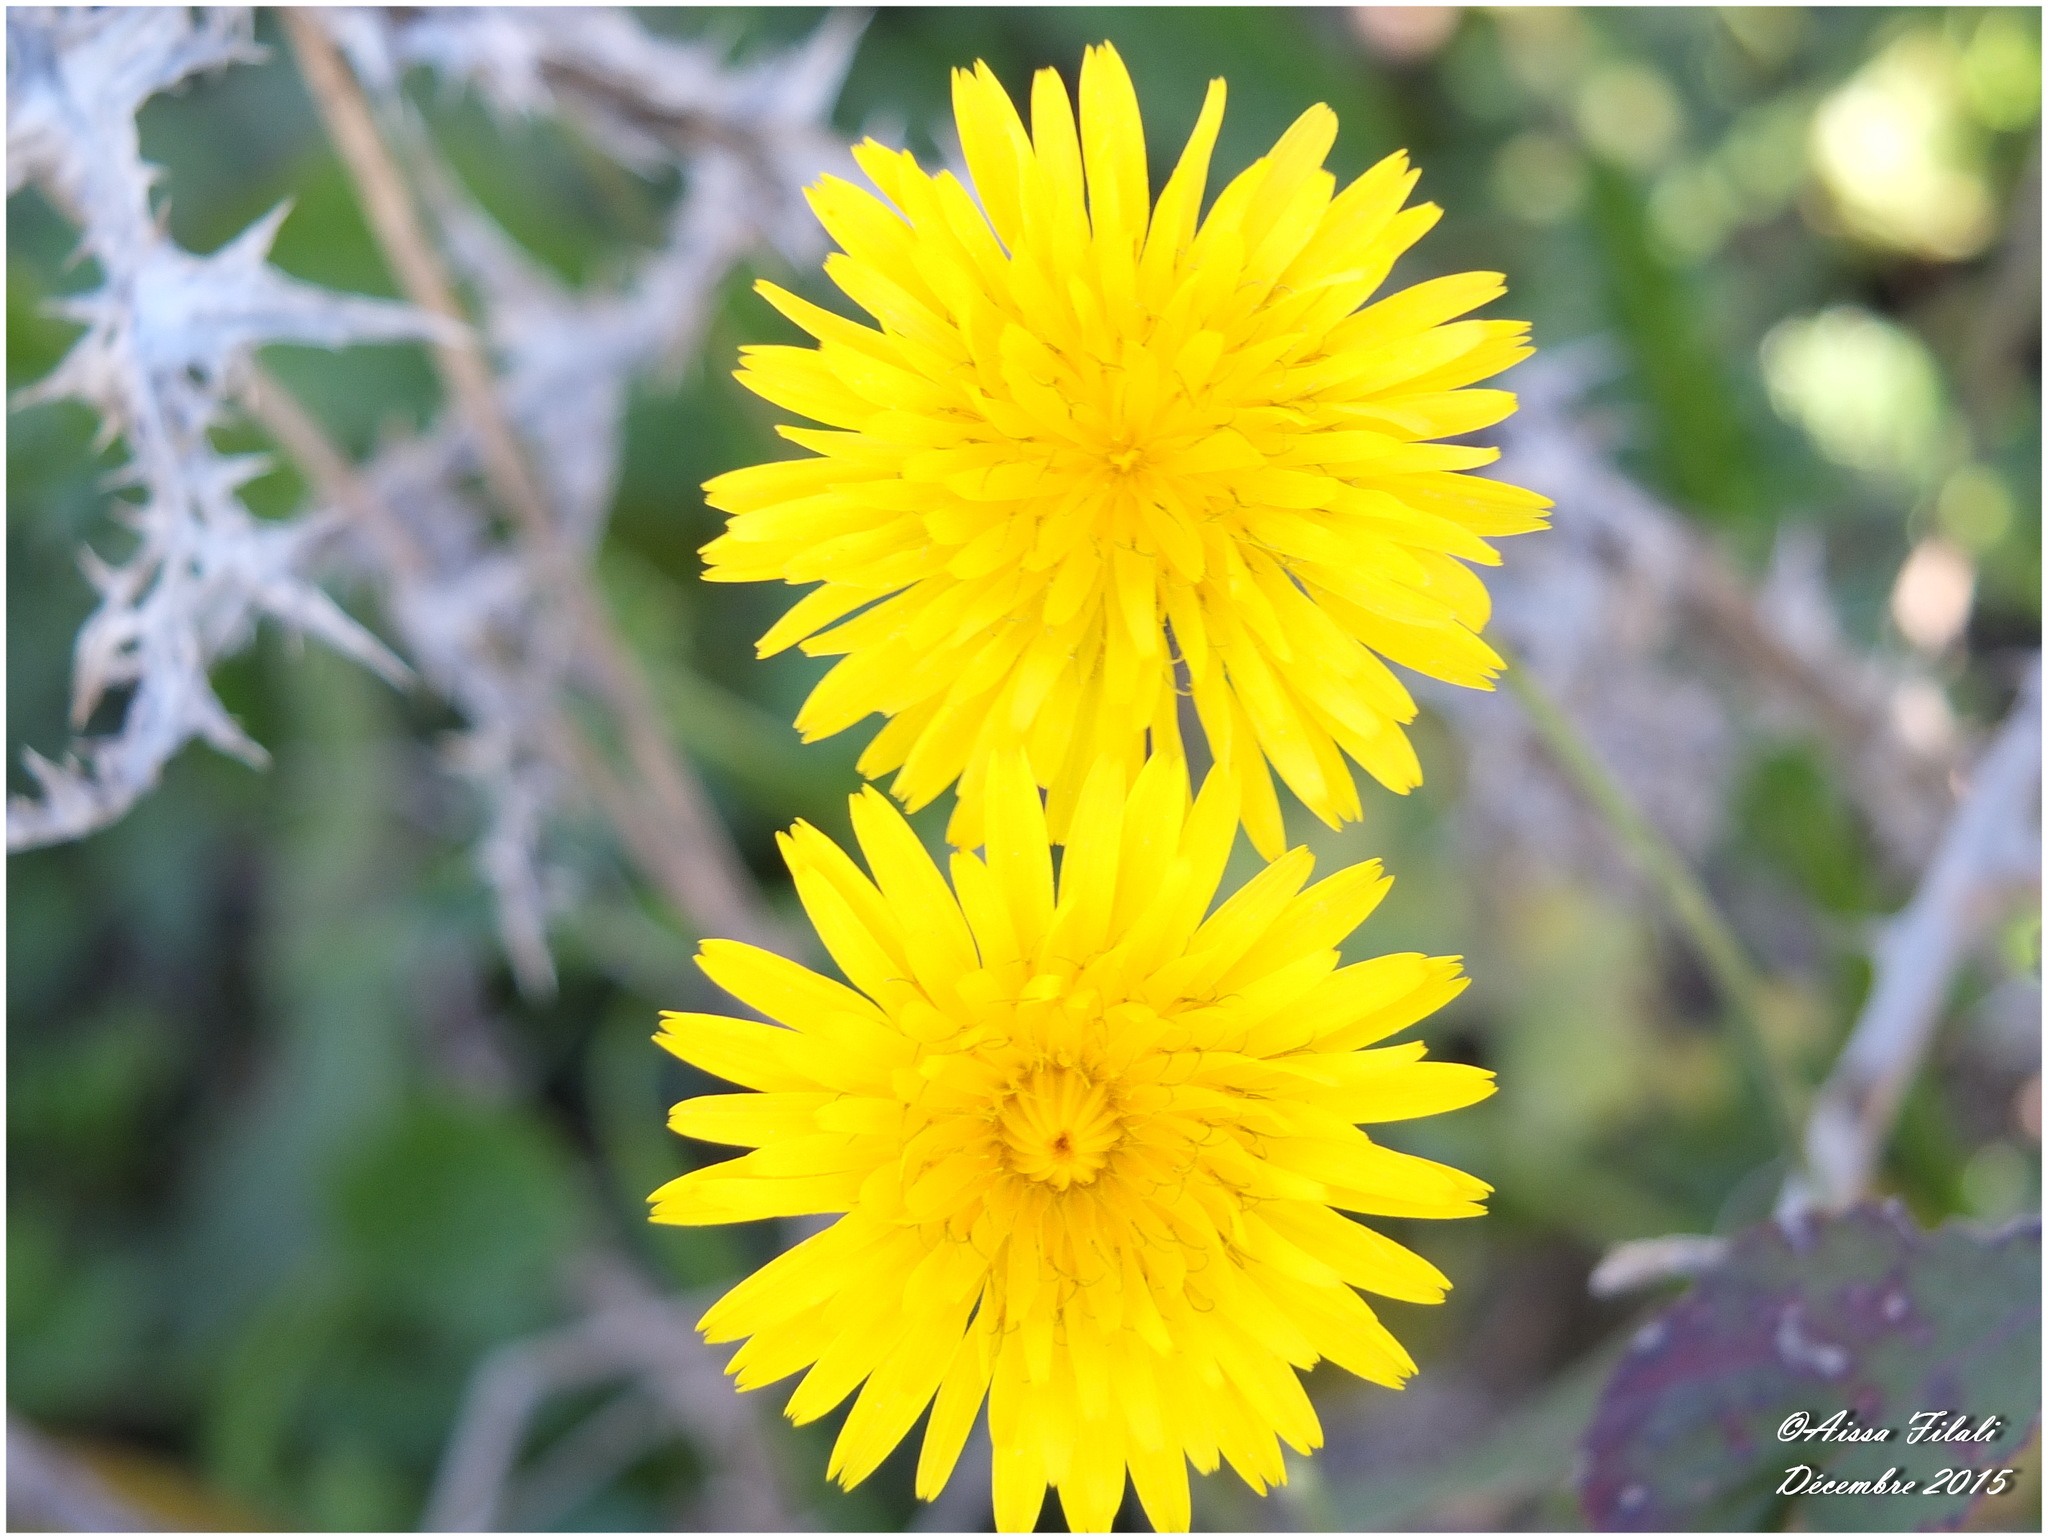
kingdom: Plantae
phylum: Tracheophyta
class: Magnoliopsida
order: Asterales
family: Asteraceae
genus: Taraxacum
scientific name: Taraxacum officinale
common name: Common dandelion
